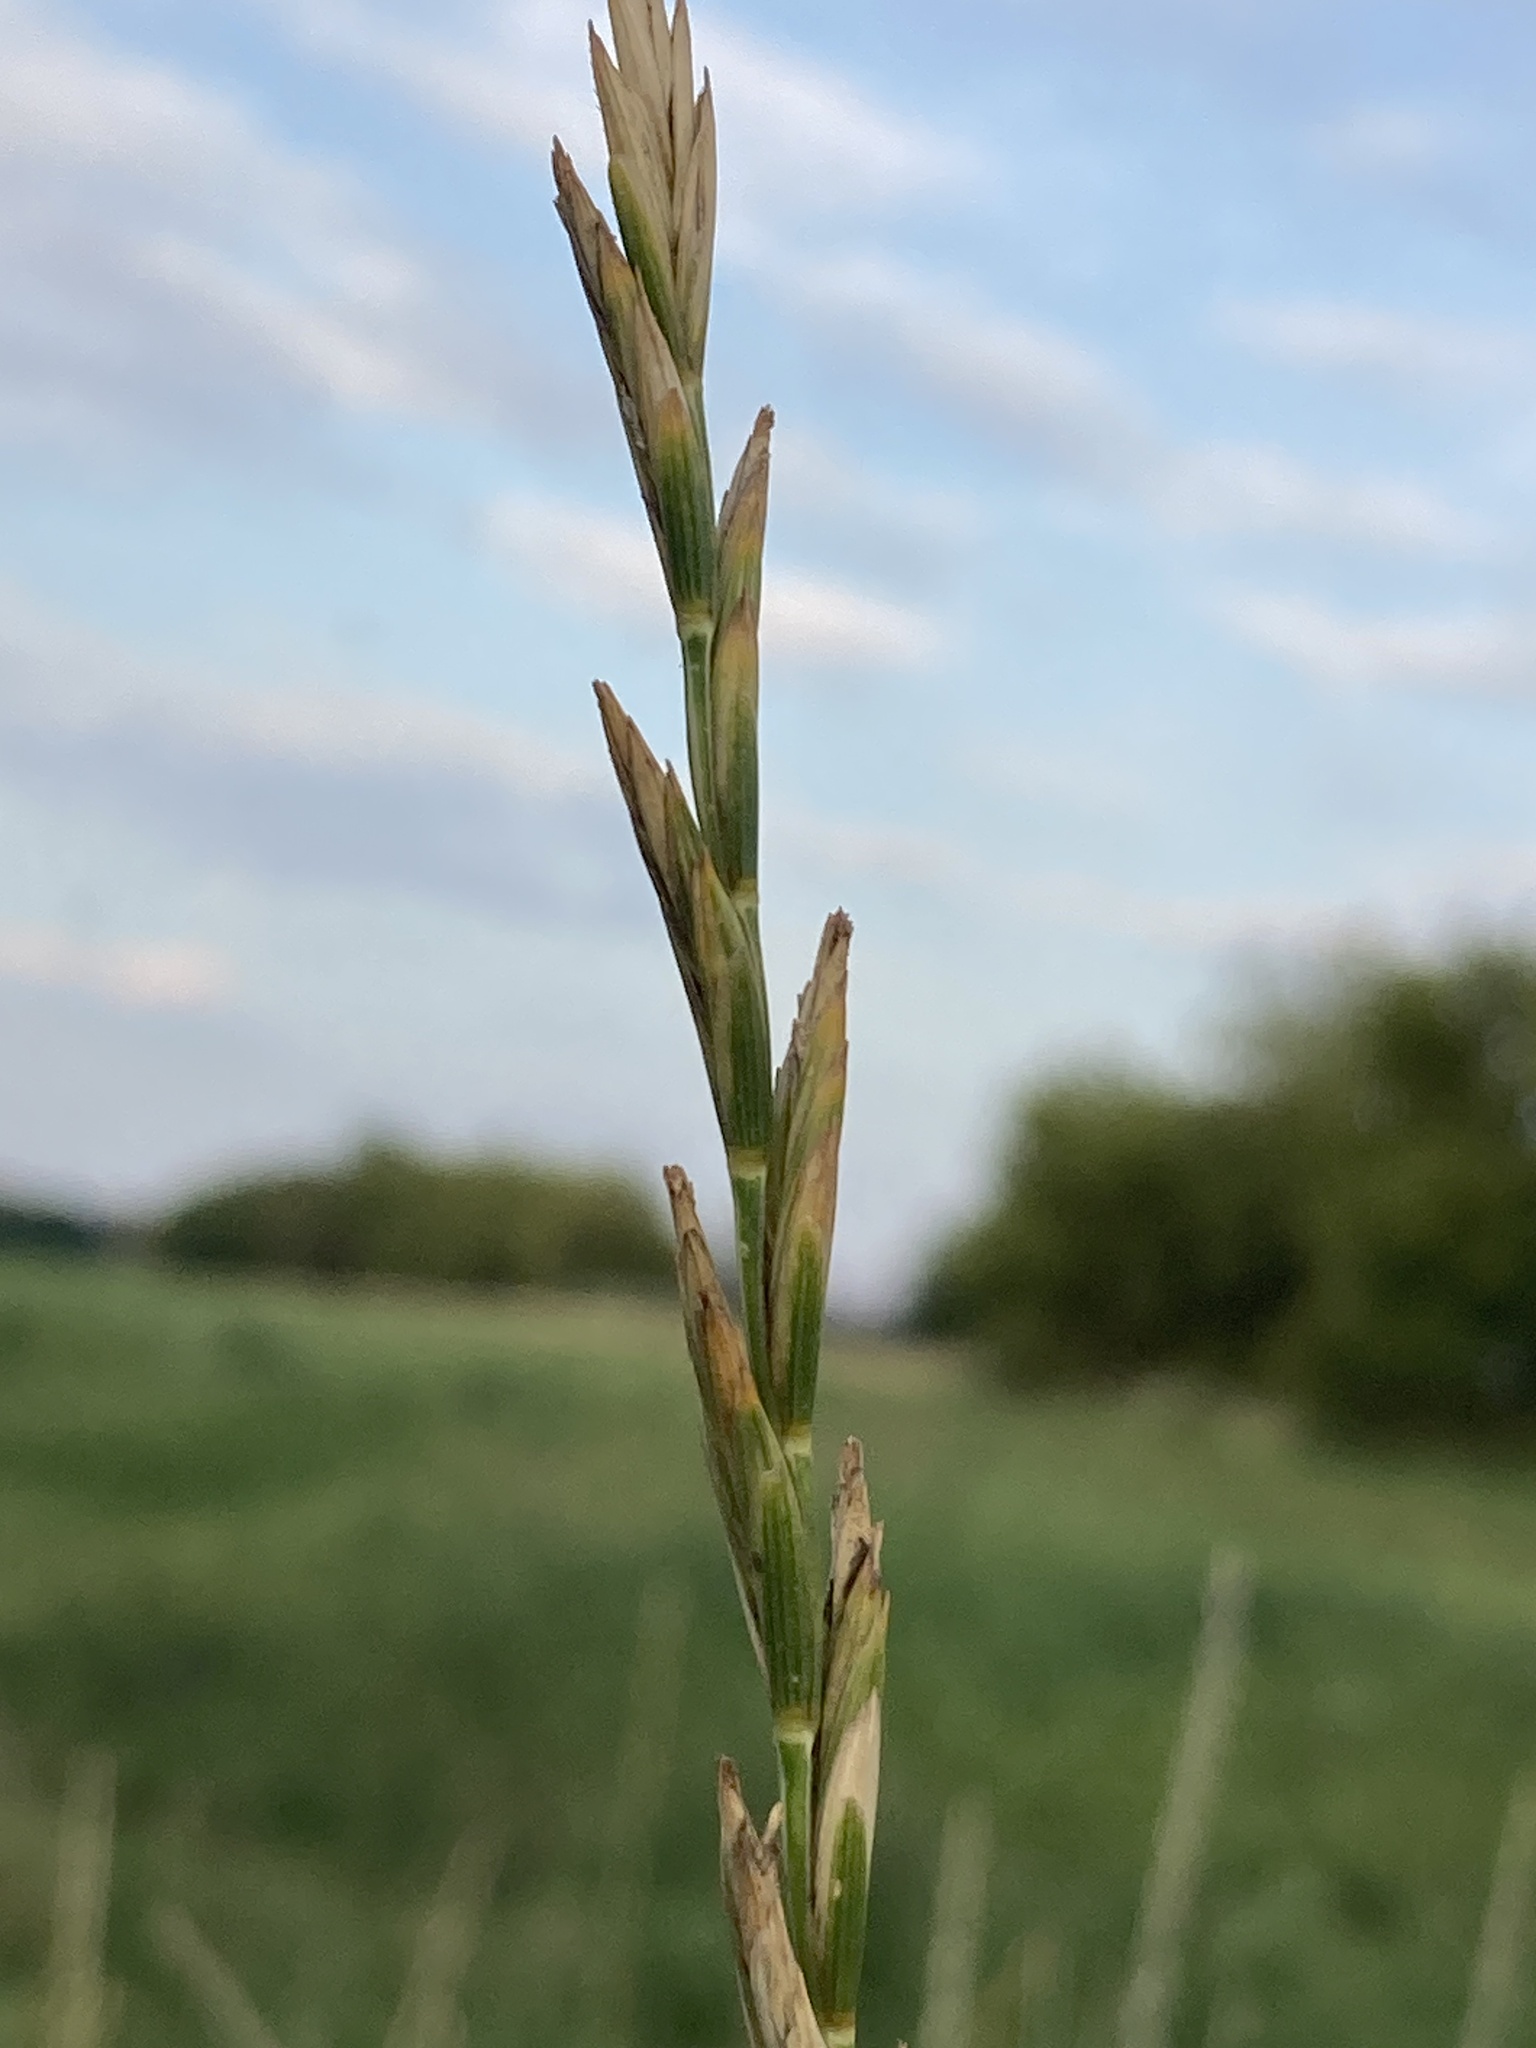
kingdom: Plantae
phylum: Tracheophyta
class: Liliopsida
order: Poales
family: Poaceae
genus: Thinopyrum
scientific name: Thinopyrum intermedium
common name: Intermediate wheatgrass
